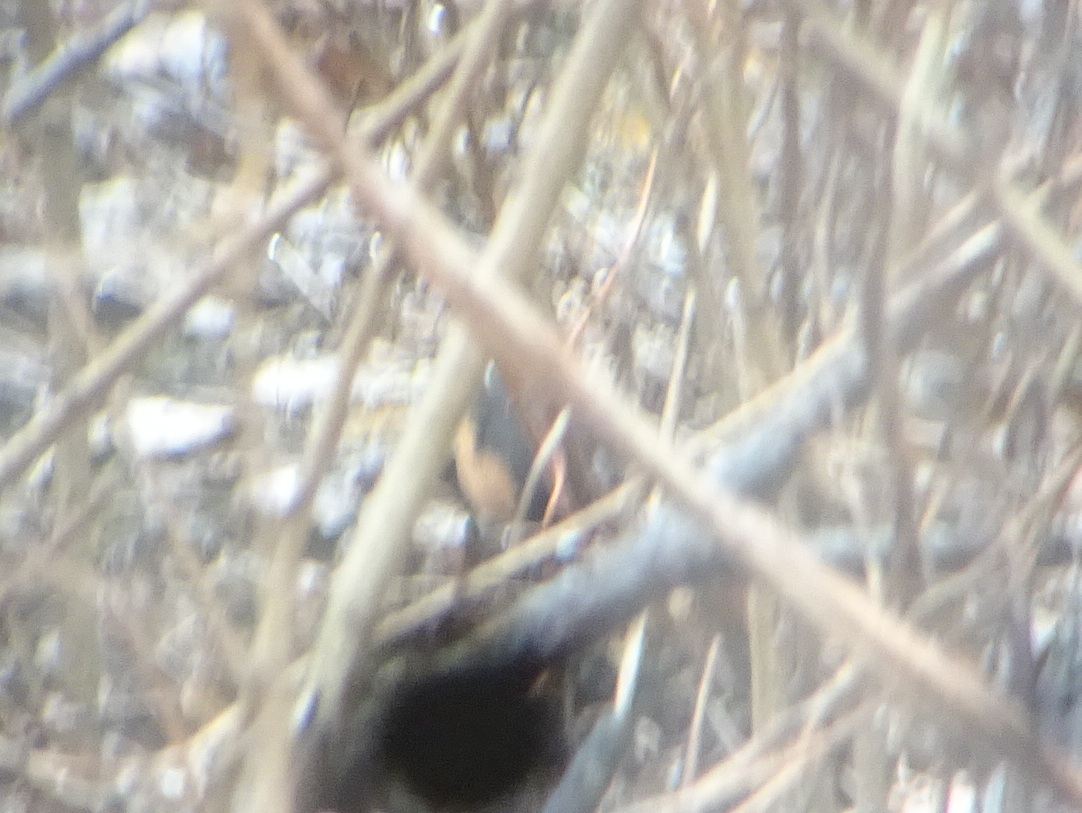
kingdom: Animalia
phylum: Chordata
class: Aves
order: Passeriformes
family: Passerellidae
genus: Pipilo
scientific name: Pipilo erythrophthalmus
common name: Eastern towhee
